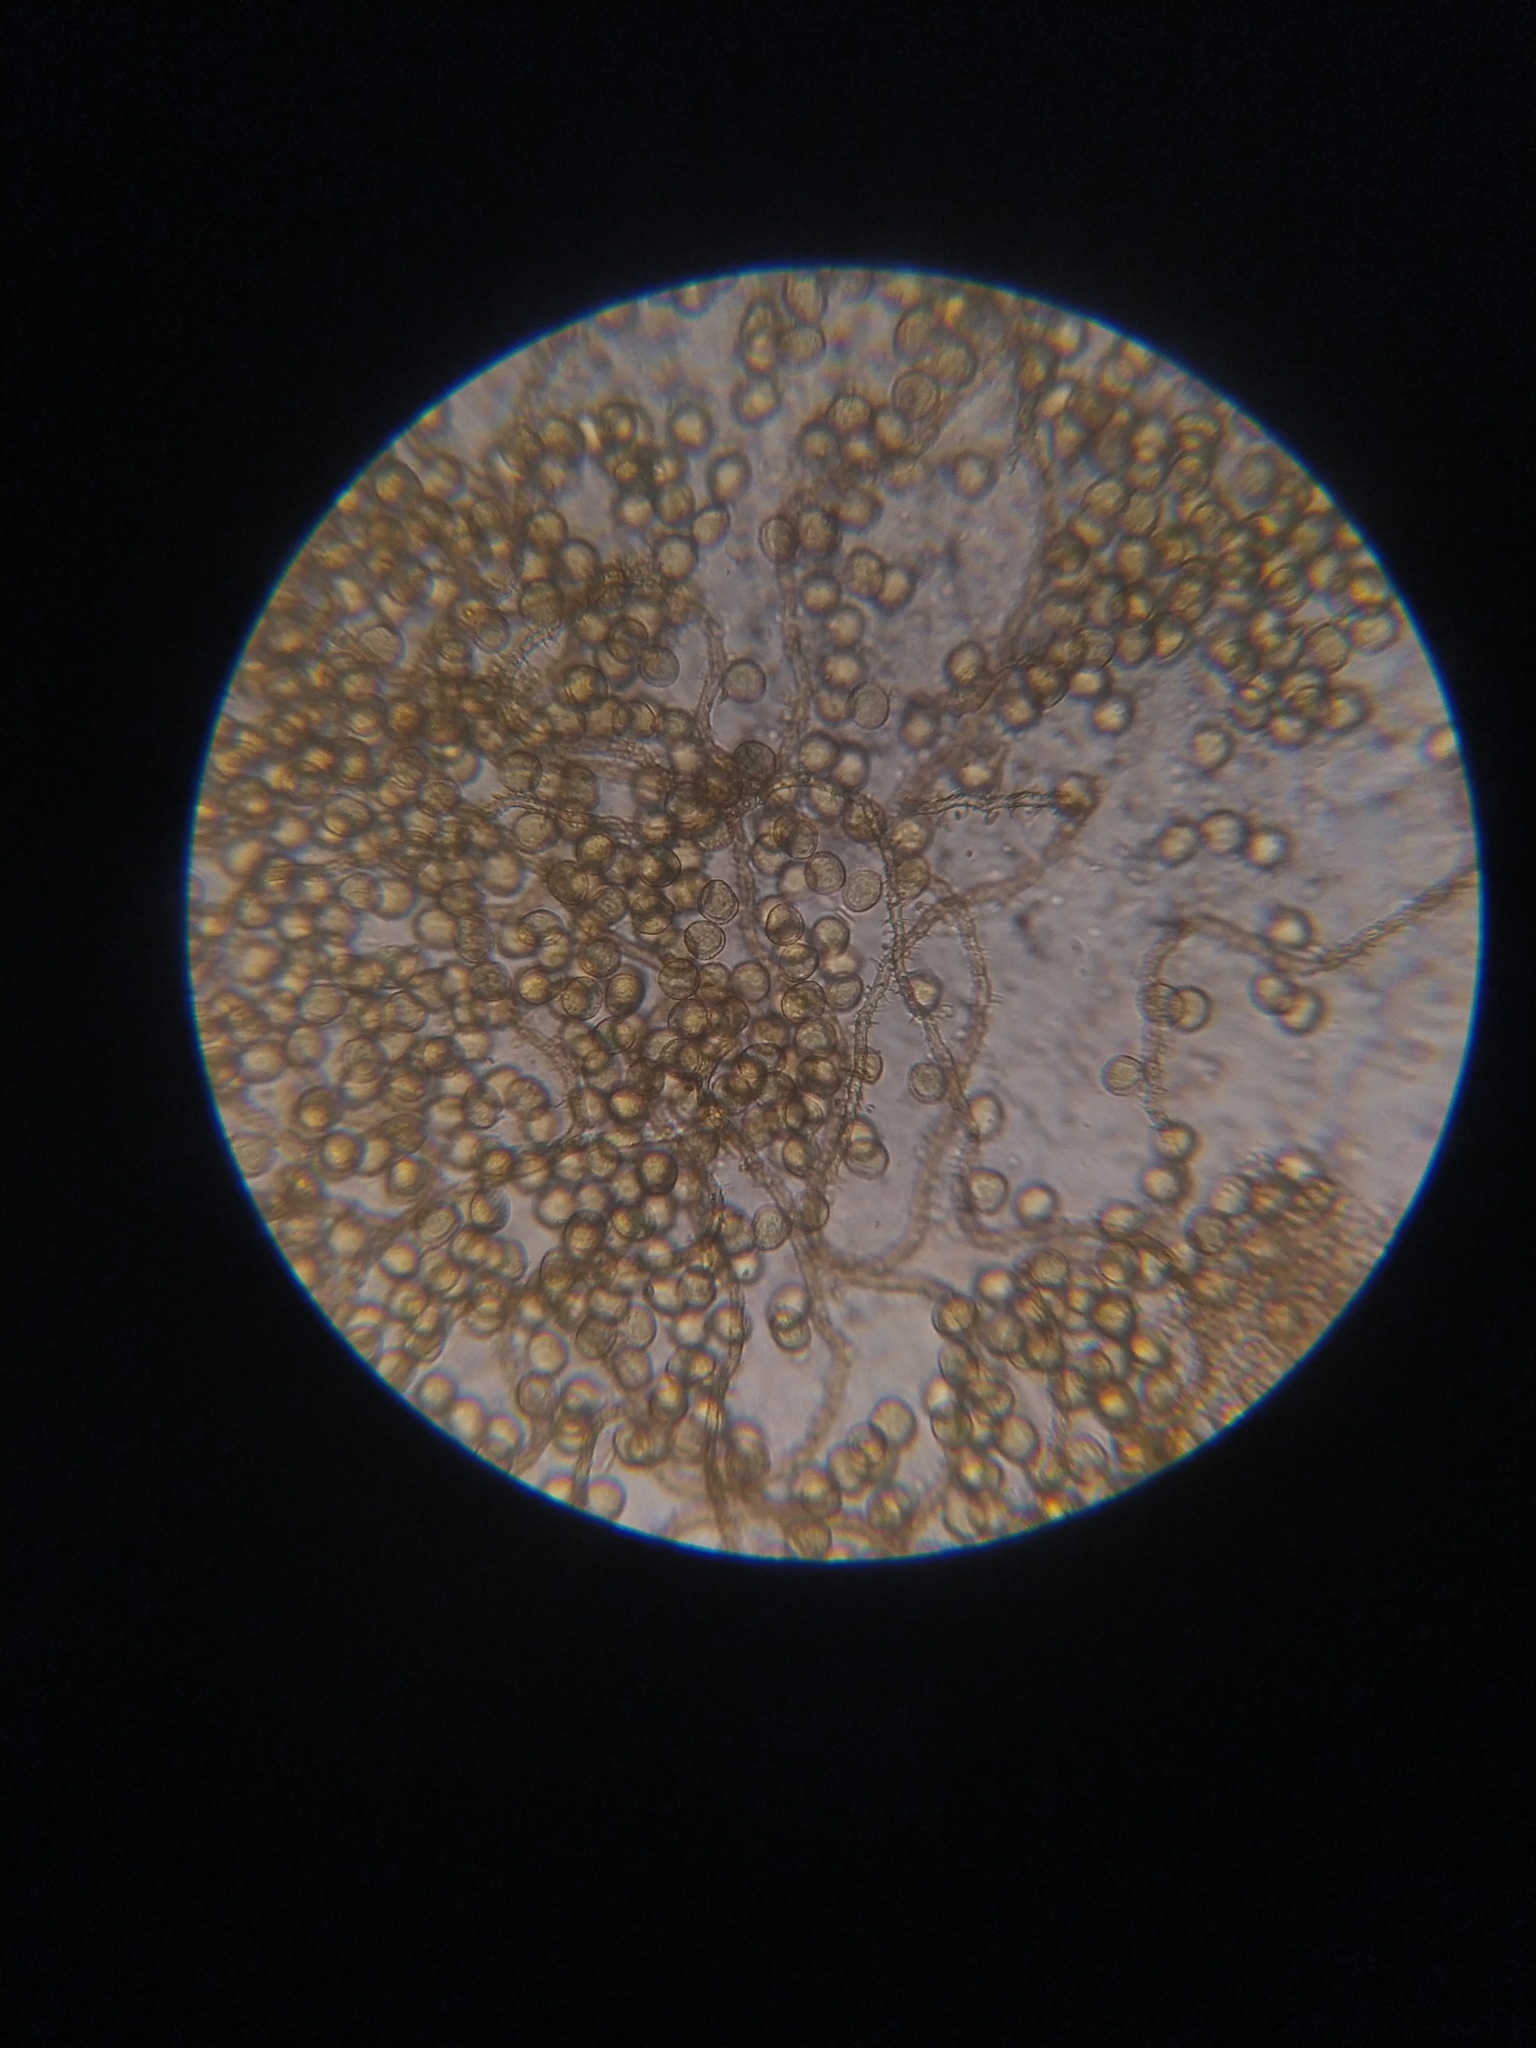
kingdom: Protozoa
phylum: Mycetozoa
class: Myxomycetes
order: Trichiales
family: Trichiaceae
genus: Perichaena
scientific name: Perichaena chrysosperma
